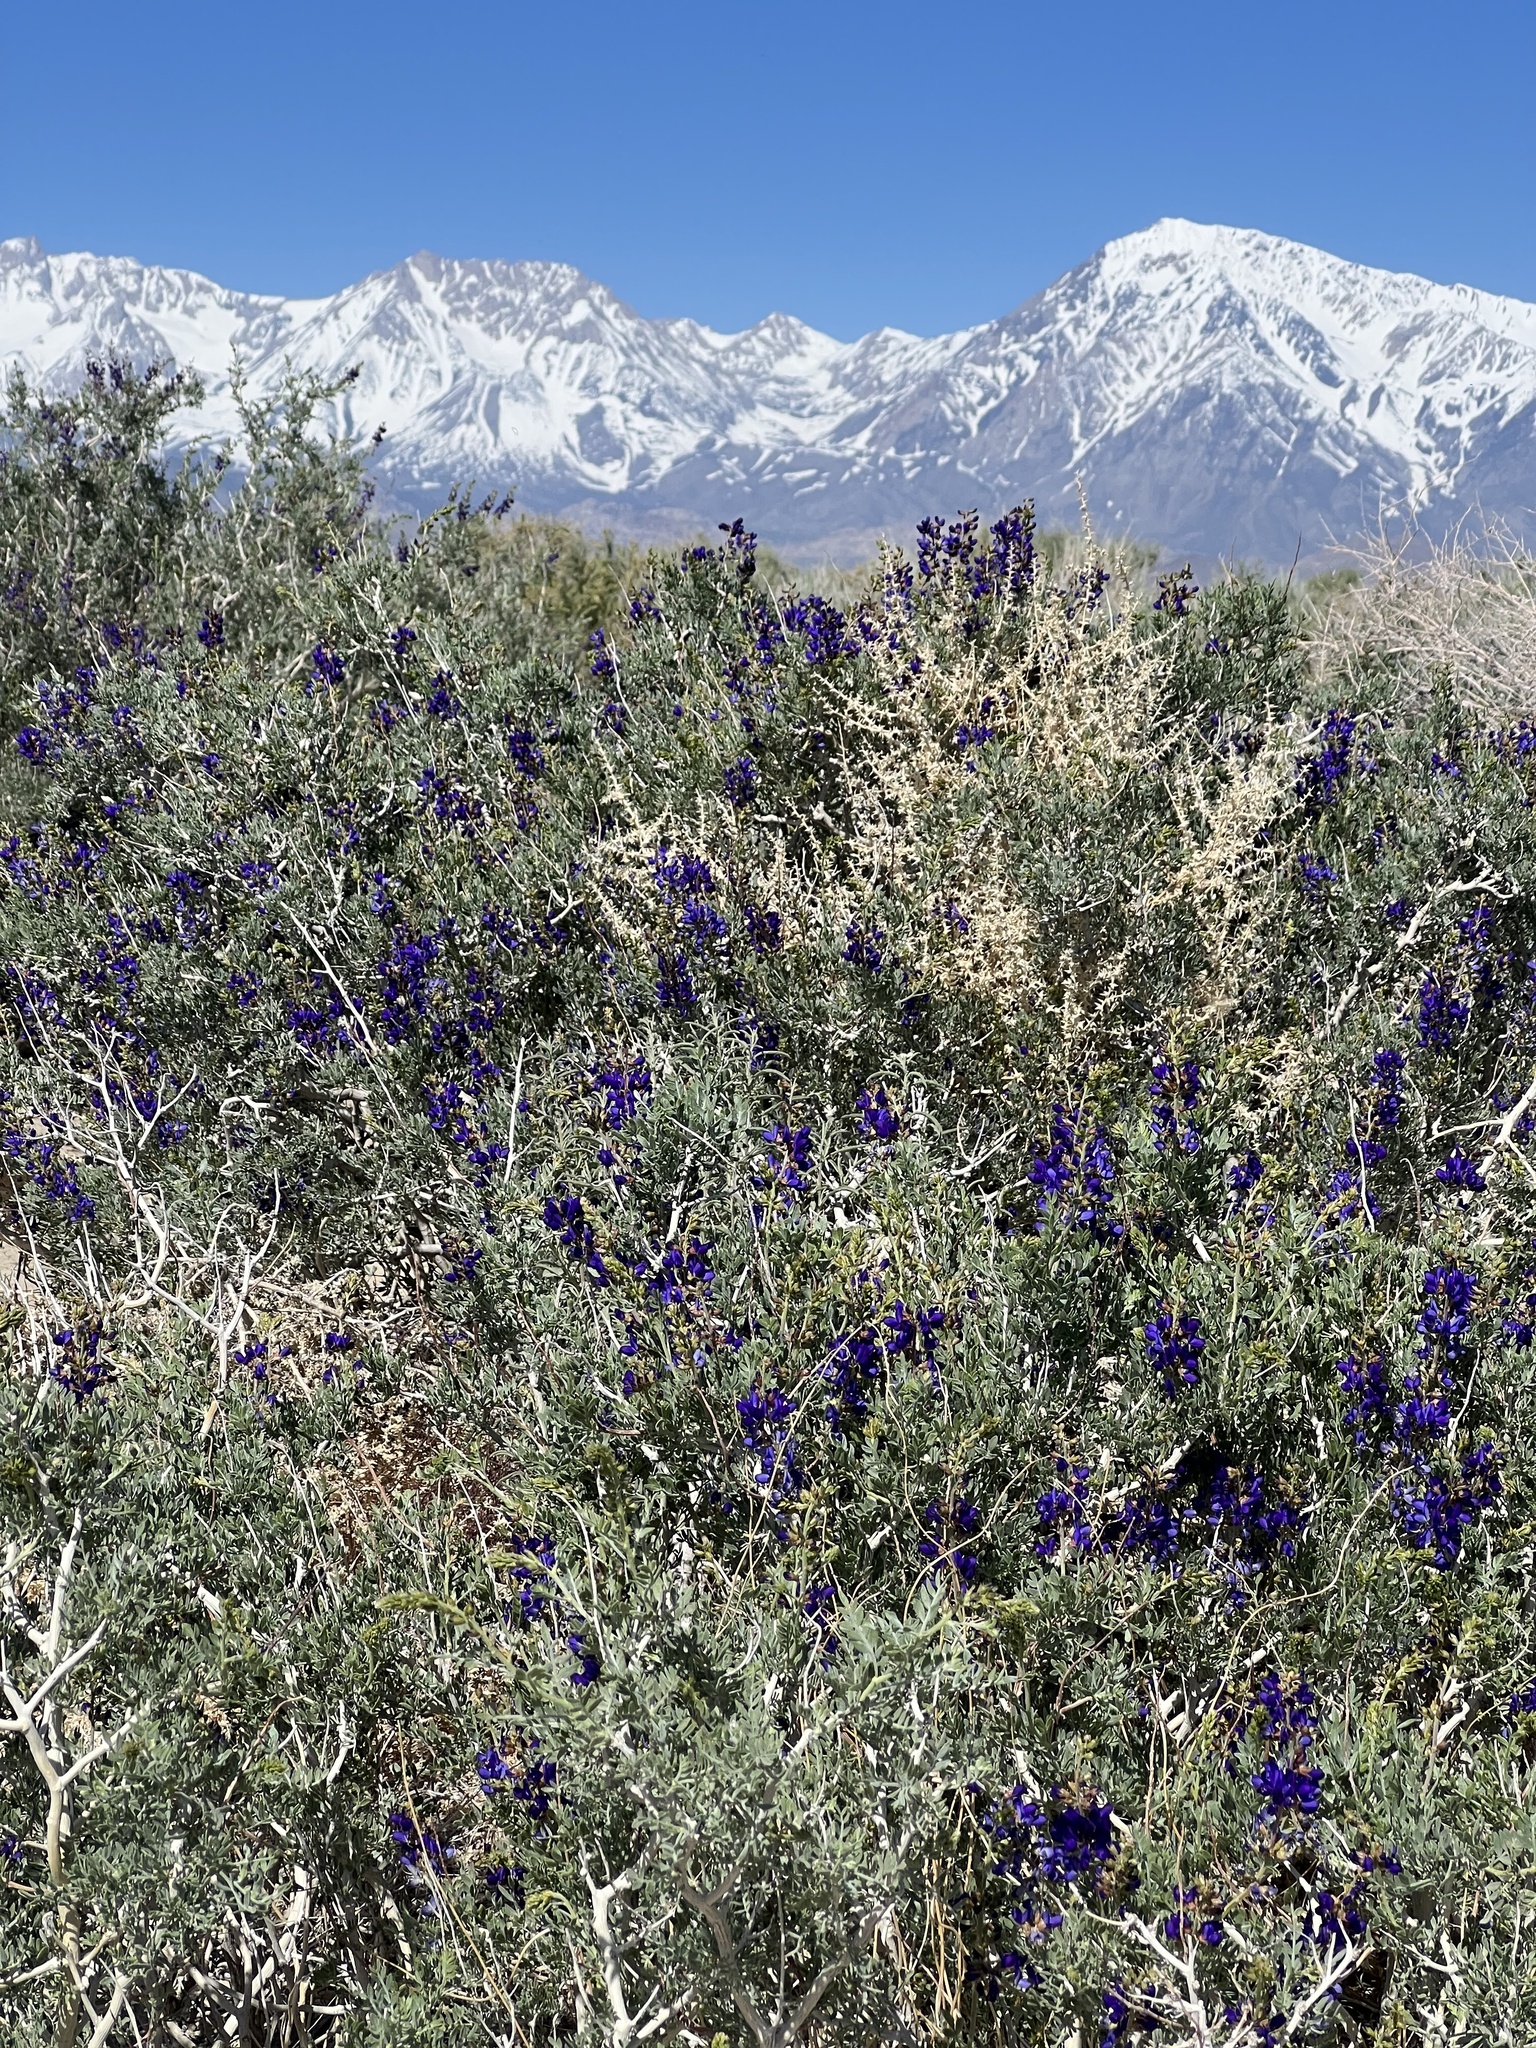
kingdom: Plantae
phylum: Tracheophyta
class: Magnoliopsida
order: Fabales
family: Fabaceae
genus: Psorothamnus
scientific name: Psorothamnus arborescens
